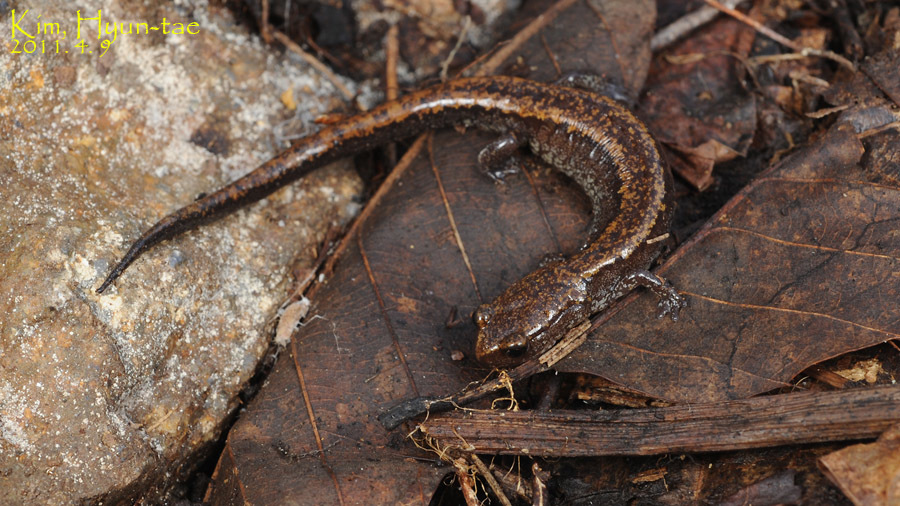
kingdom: Animalia
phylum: Chordata
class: Amphibia
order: Caudata
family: Plethodontidae
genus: Karsenia
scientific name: Karsenia koreana
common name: Korean crevice salamander
